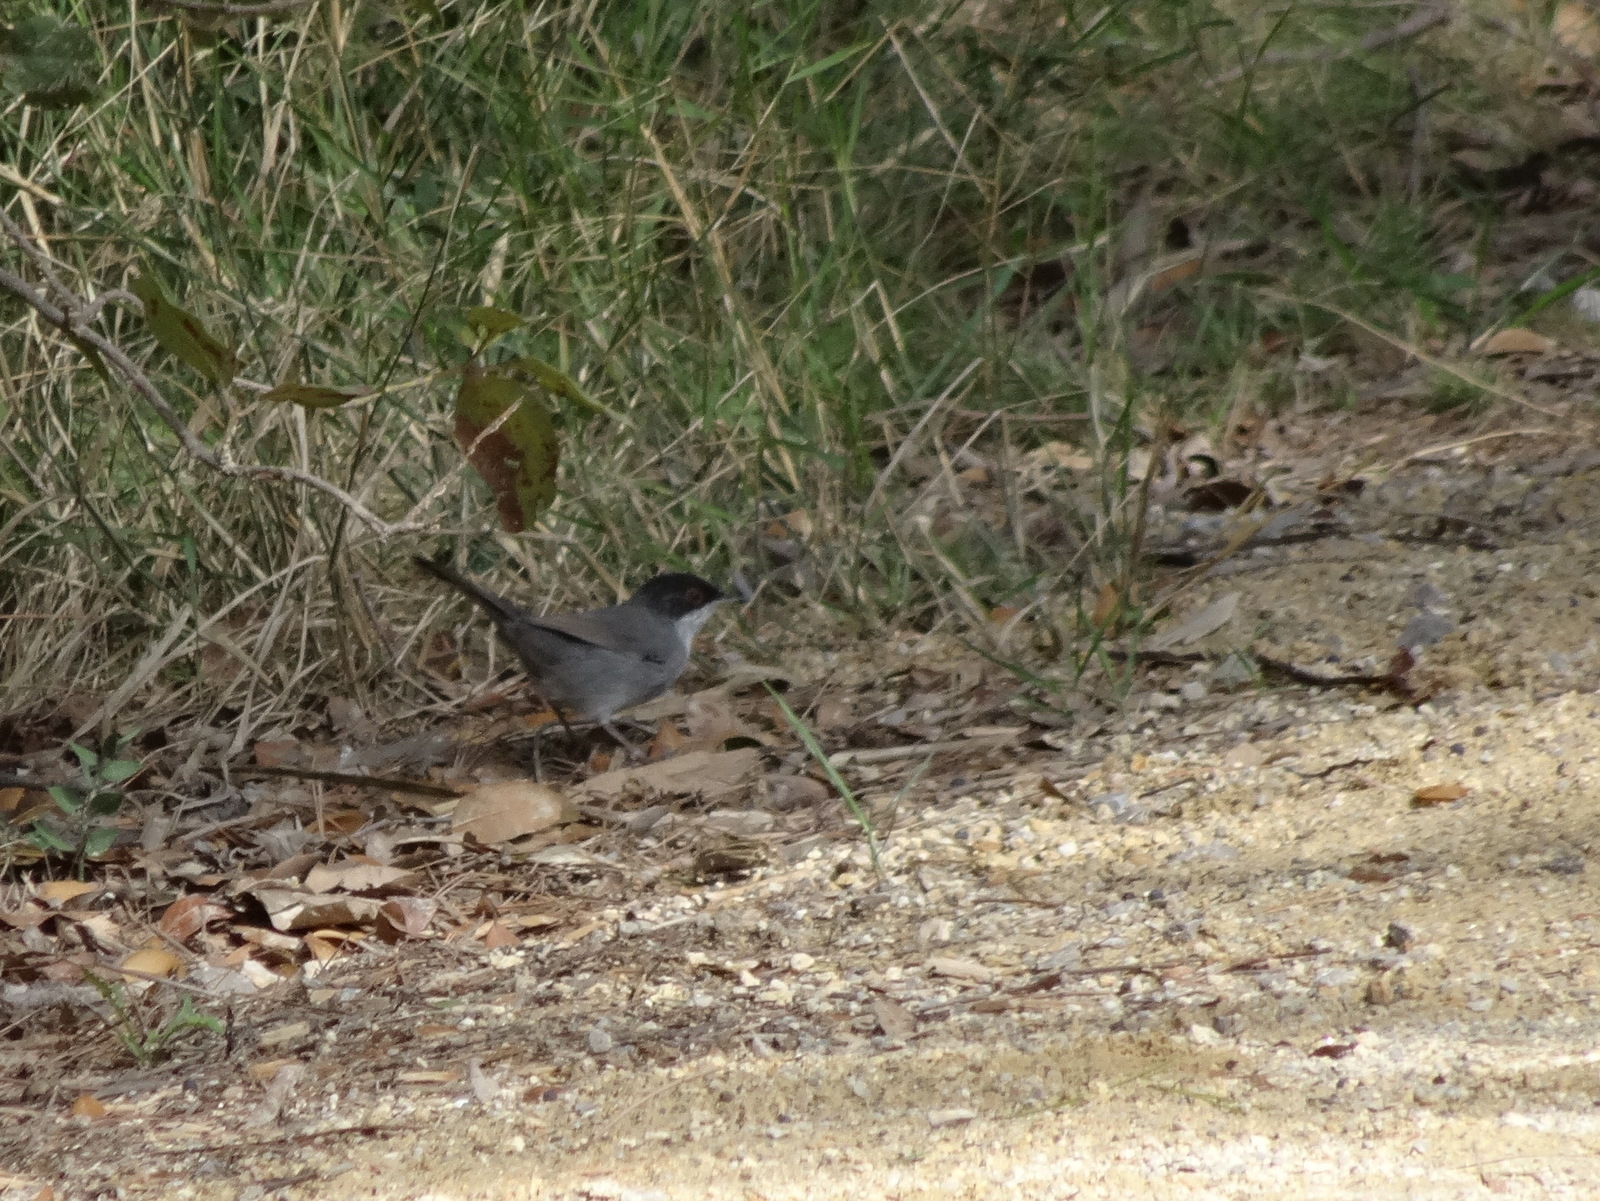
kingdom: Animalia
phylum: Chordata
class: Aves
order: Passeriformes
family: Sylviidae
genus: Curruca
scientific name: Curruca melanocephala
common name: Sardinian warbler
